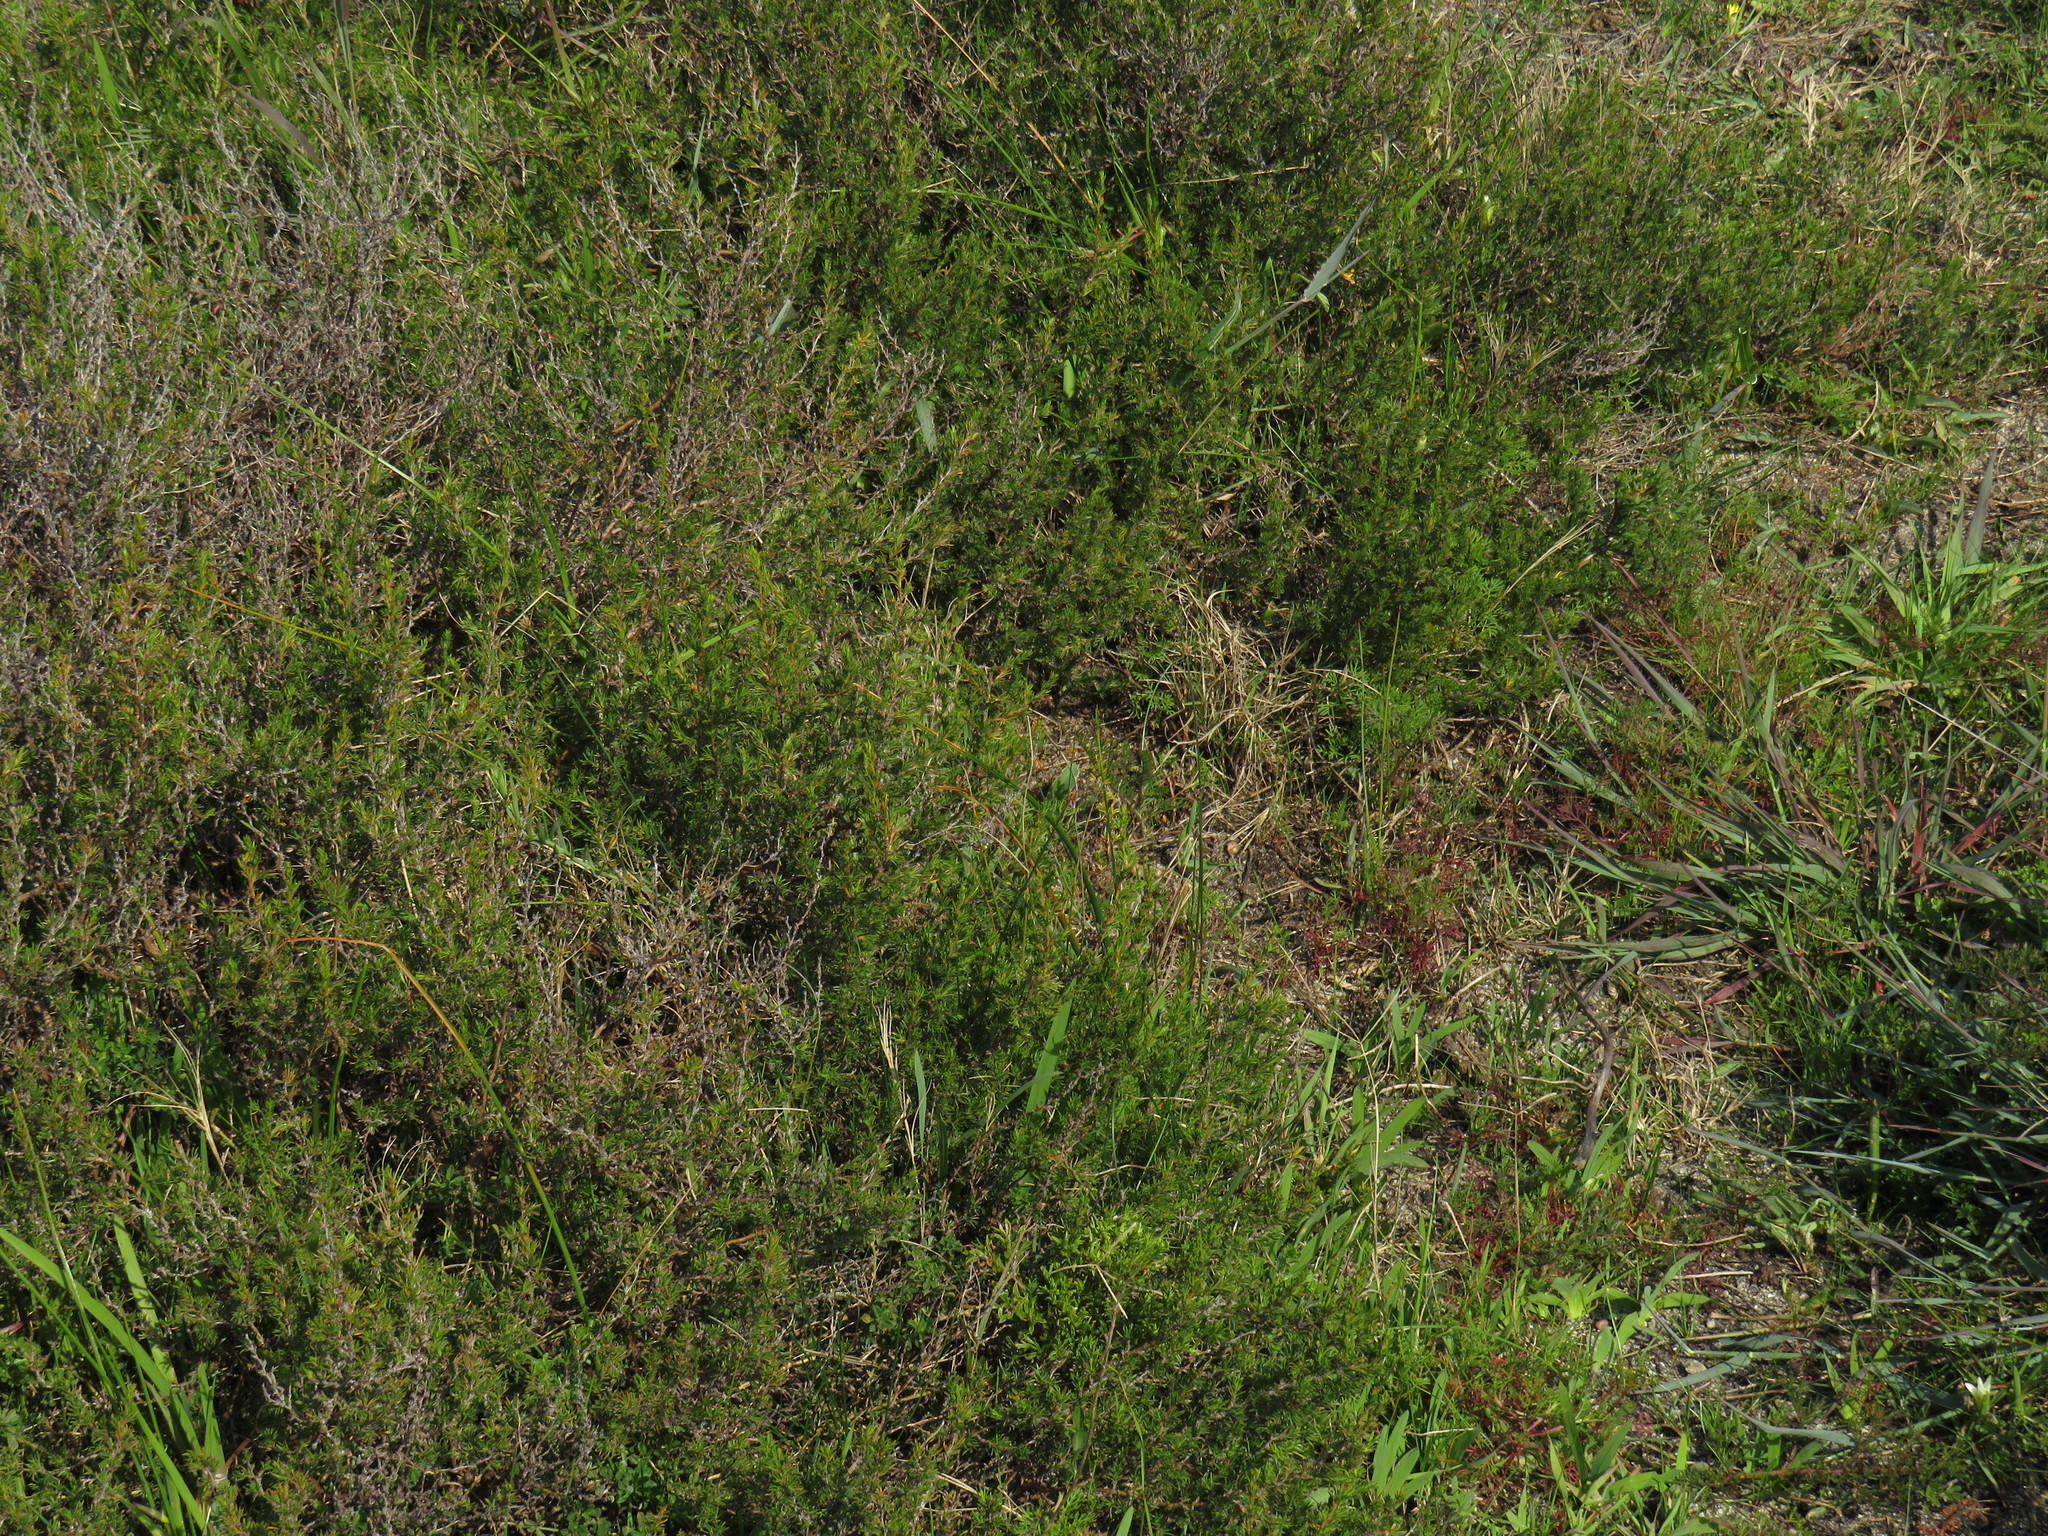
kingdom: Plantae
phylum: Tracheophyta
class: Magnoliopsida
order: Rosales
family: Rosaceae
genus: Cliffortia
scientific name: Cliffortia juniperina
